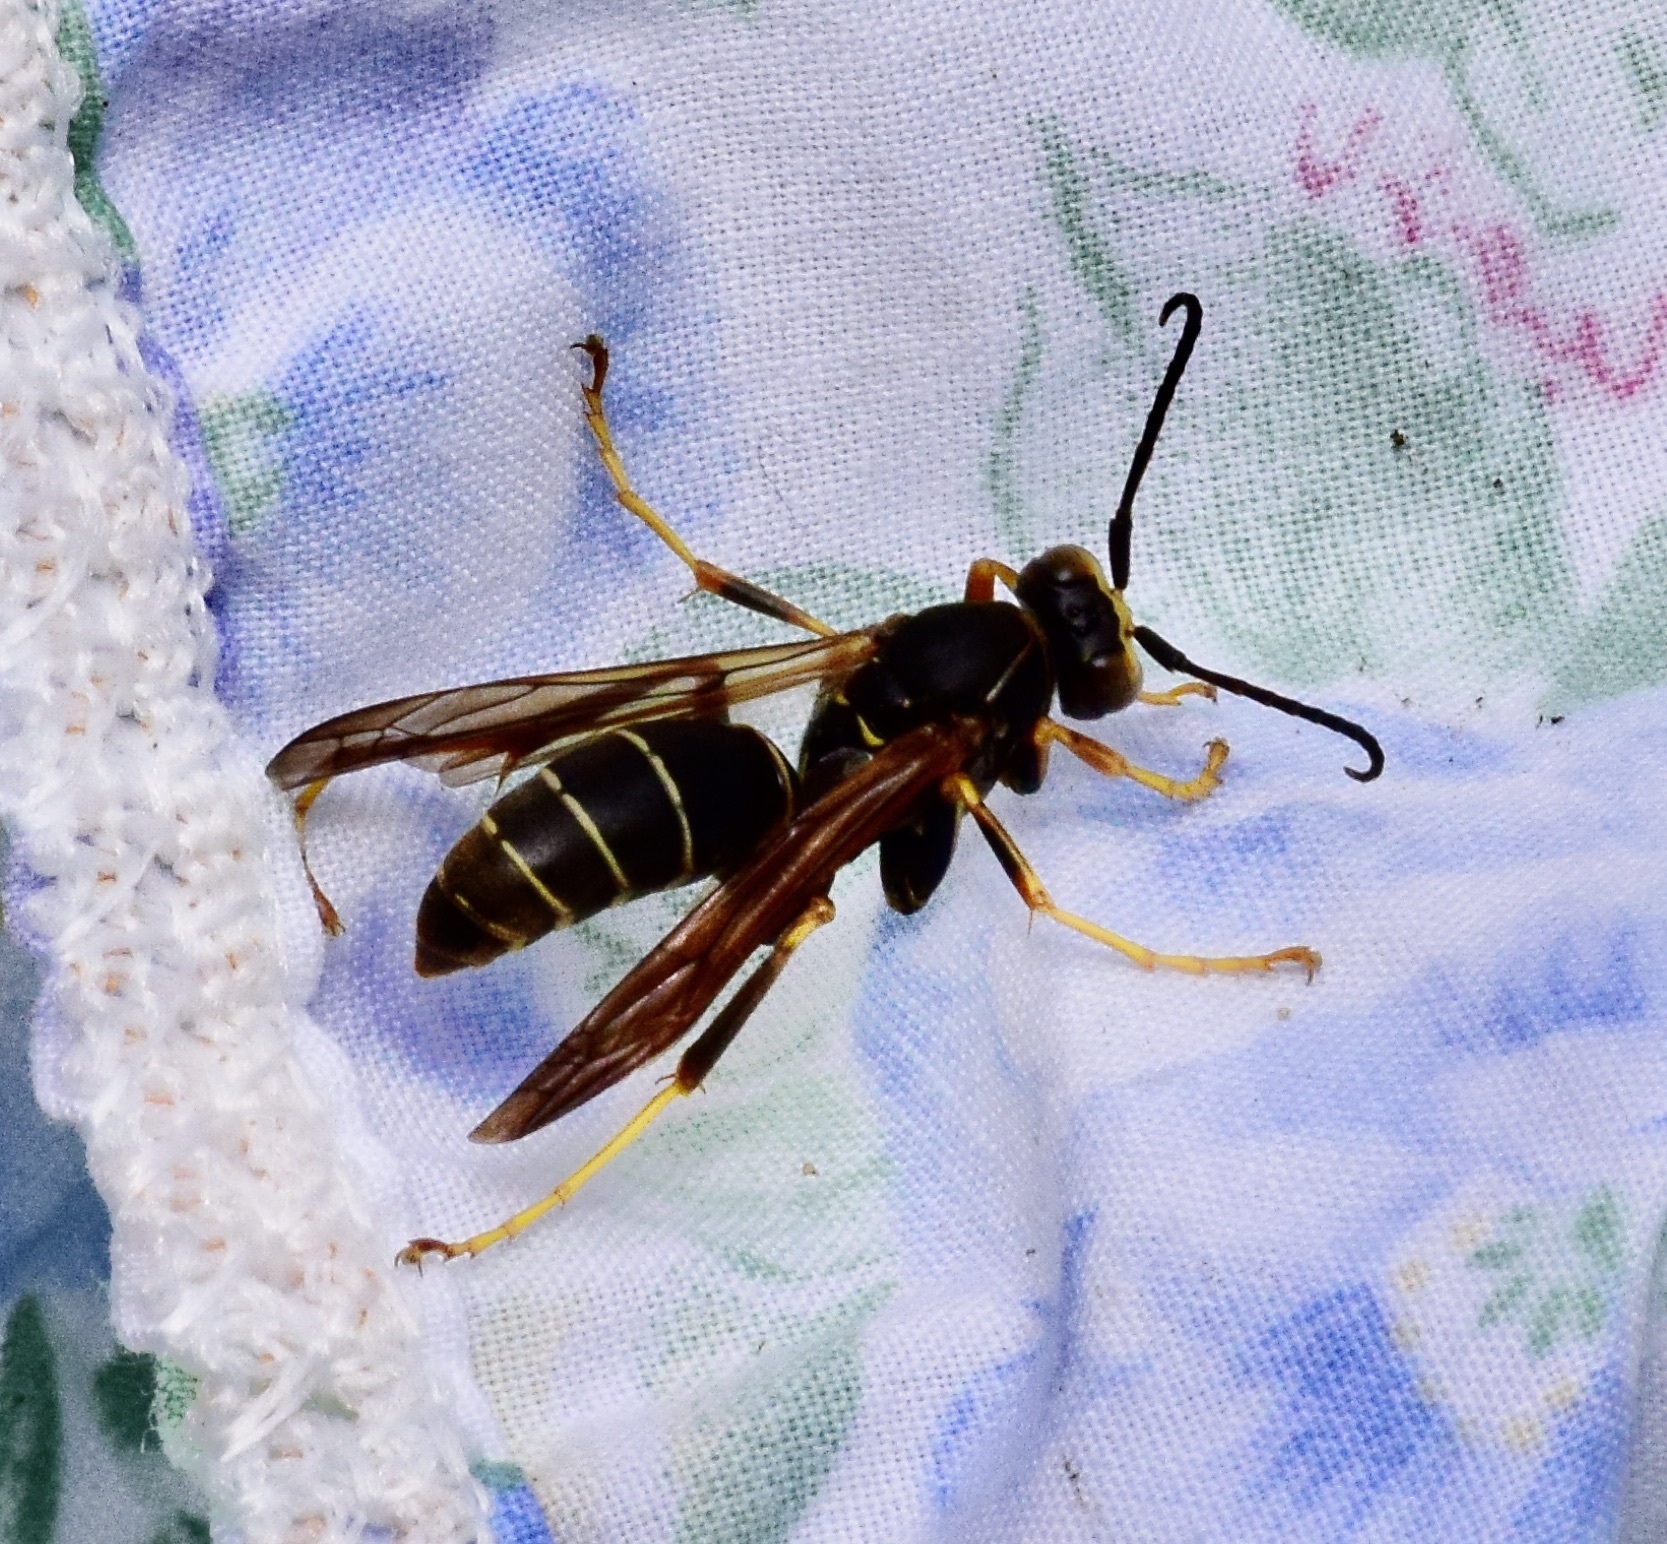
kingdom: Animalia
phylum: Arthropoda
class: Insecta
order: Hymenoptera
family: Eumenidae
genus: Polistes
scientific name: Polistes fuscatus
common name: Dark paper wasp
